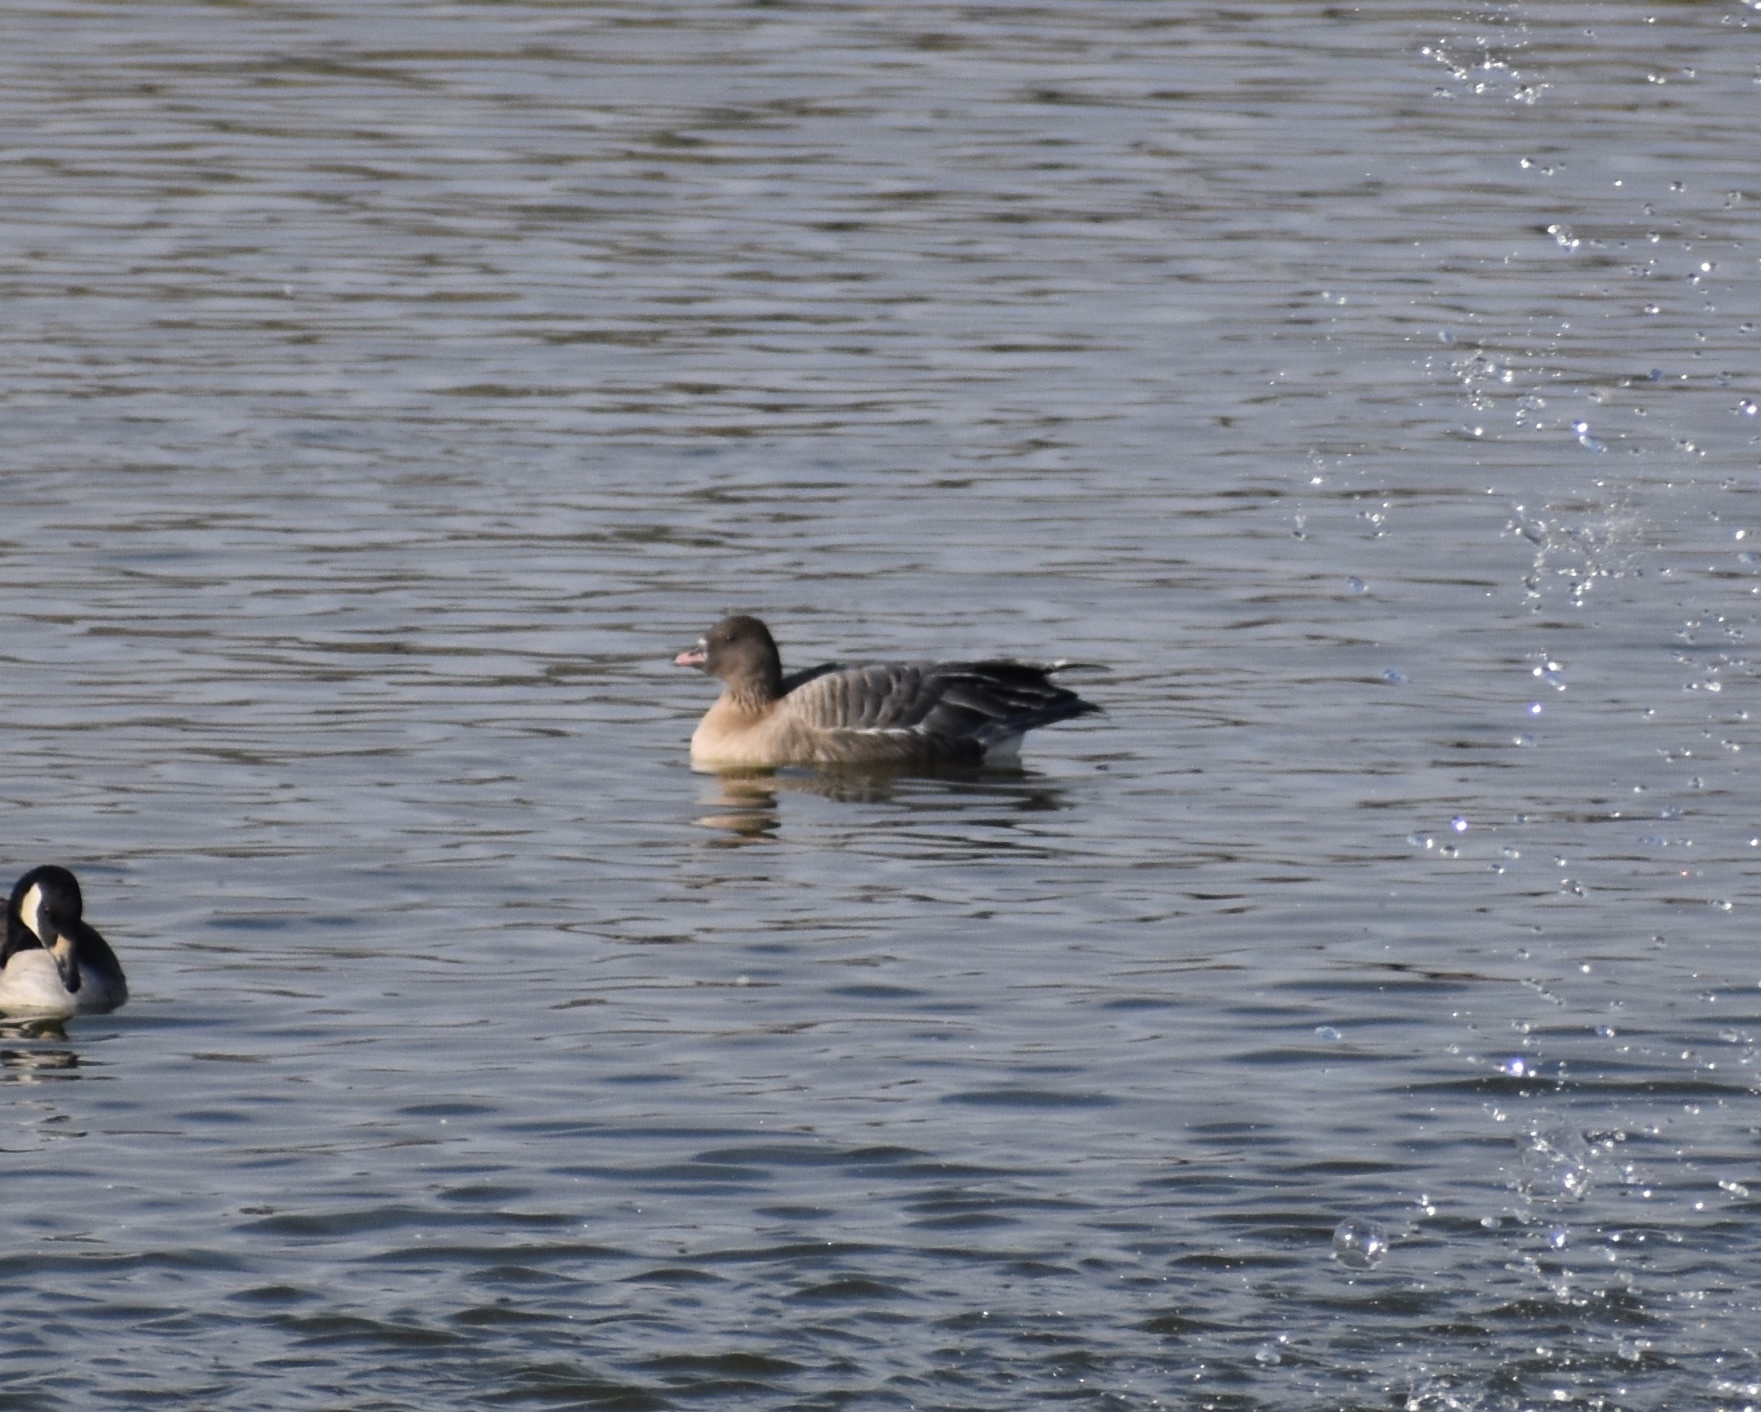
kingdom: Animalia
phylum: Chordata
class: Aves
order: Anseriformes
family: Anatidae
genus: Anser
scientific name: Anser brachyrhynchus
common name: Pink-footed goose
